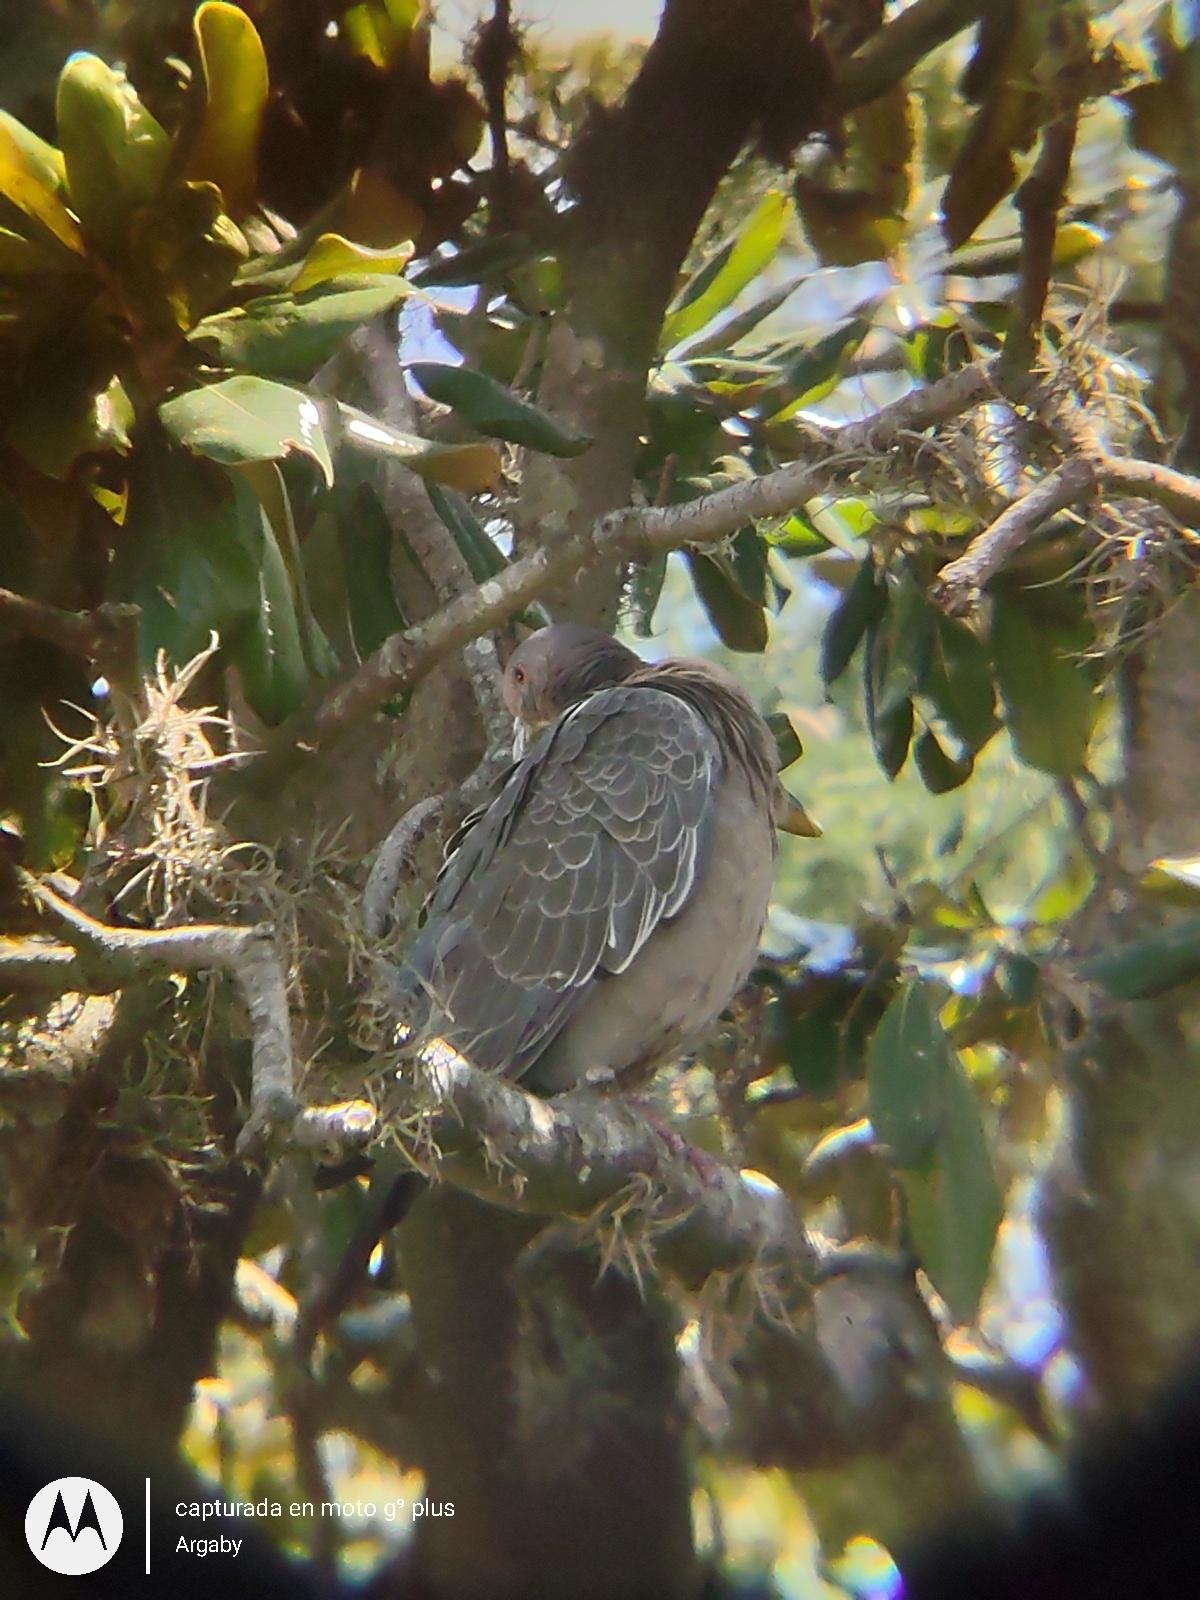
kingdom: Animalia
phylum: Chordata
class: Aves
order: Columbiformes
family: Columbidae
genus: Patagioenas
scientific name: Patagioenas picazuro
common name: Picazuro pigeon
